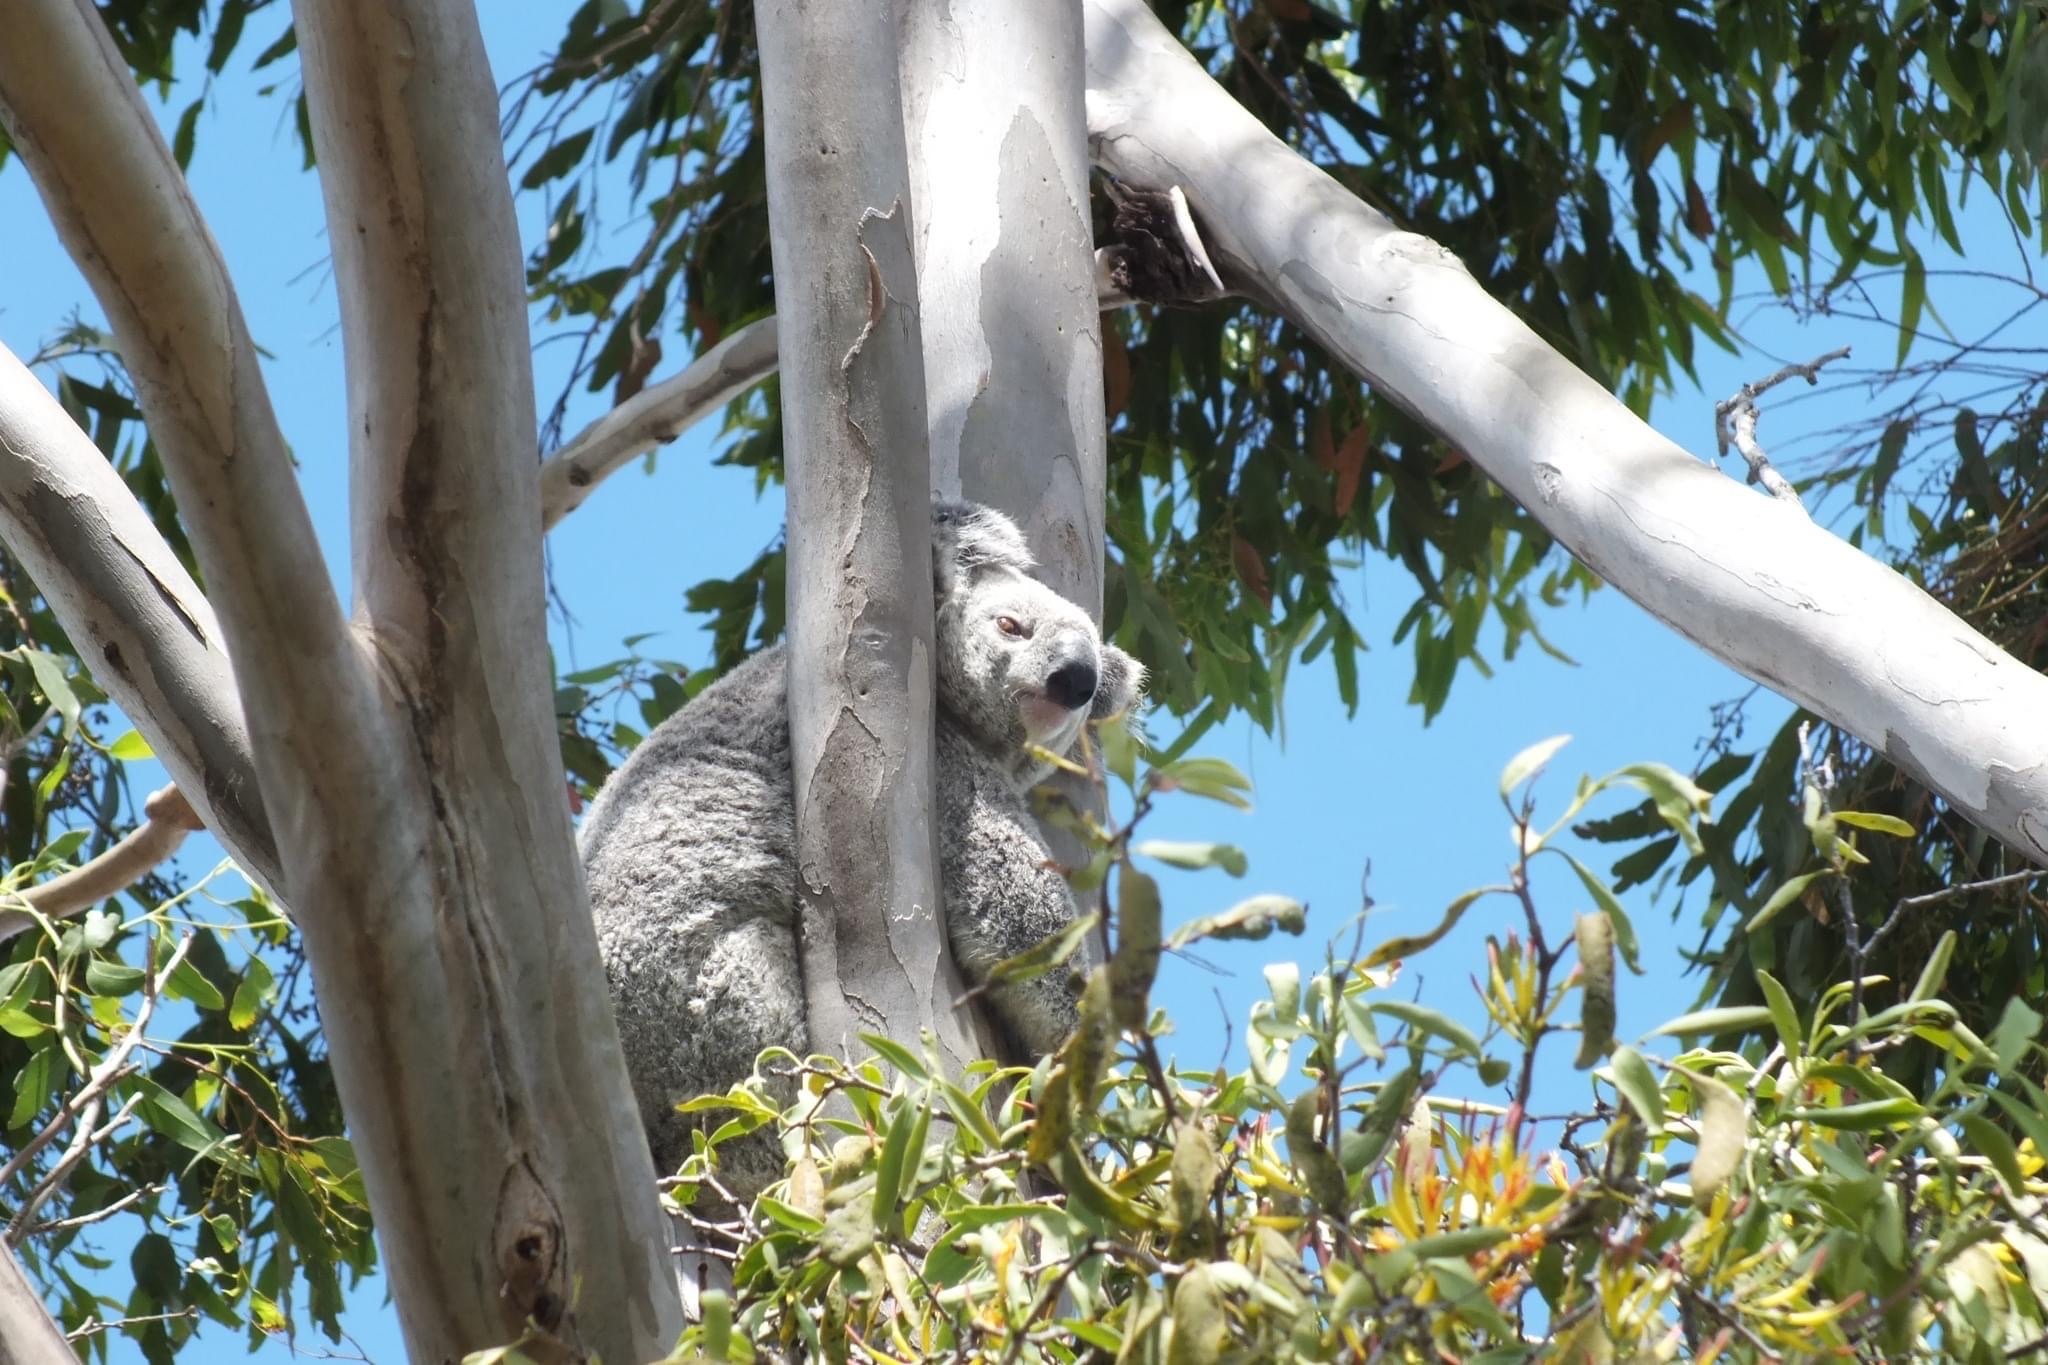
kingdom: Animalia
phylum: Chordata
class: Mammalia
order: Diprotodontia
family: Phascolarctidae
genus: Phascolarctos
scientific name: Phascolarctos cinereus
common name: Koala
